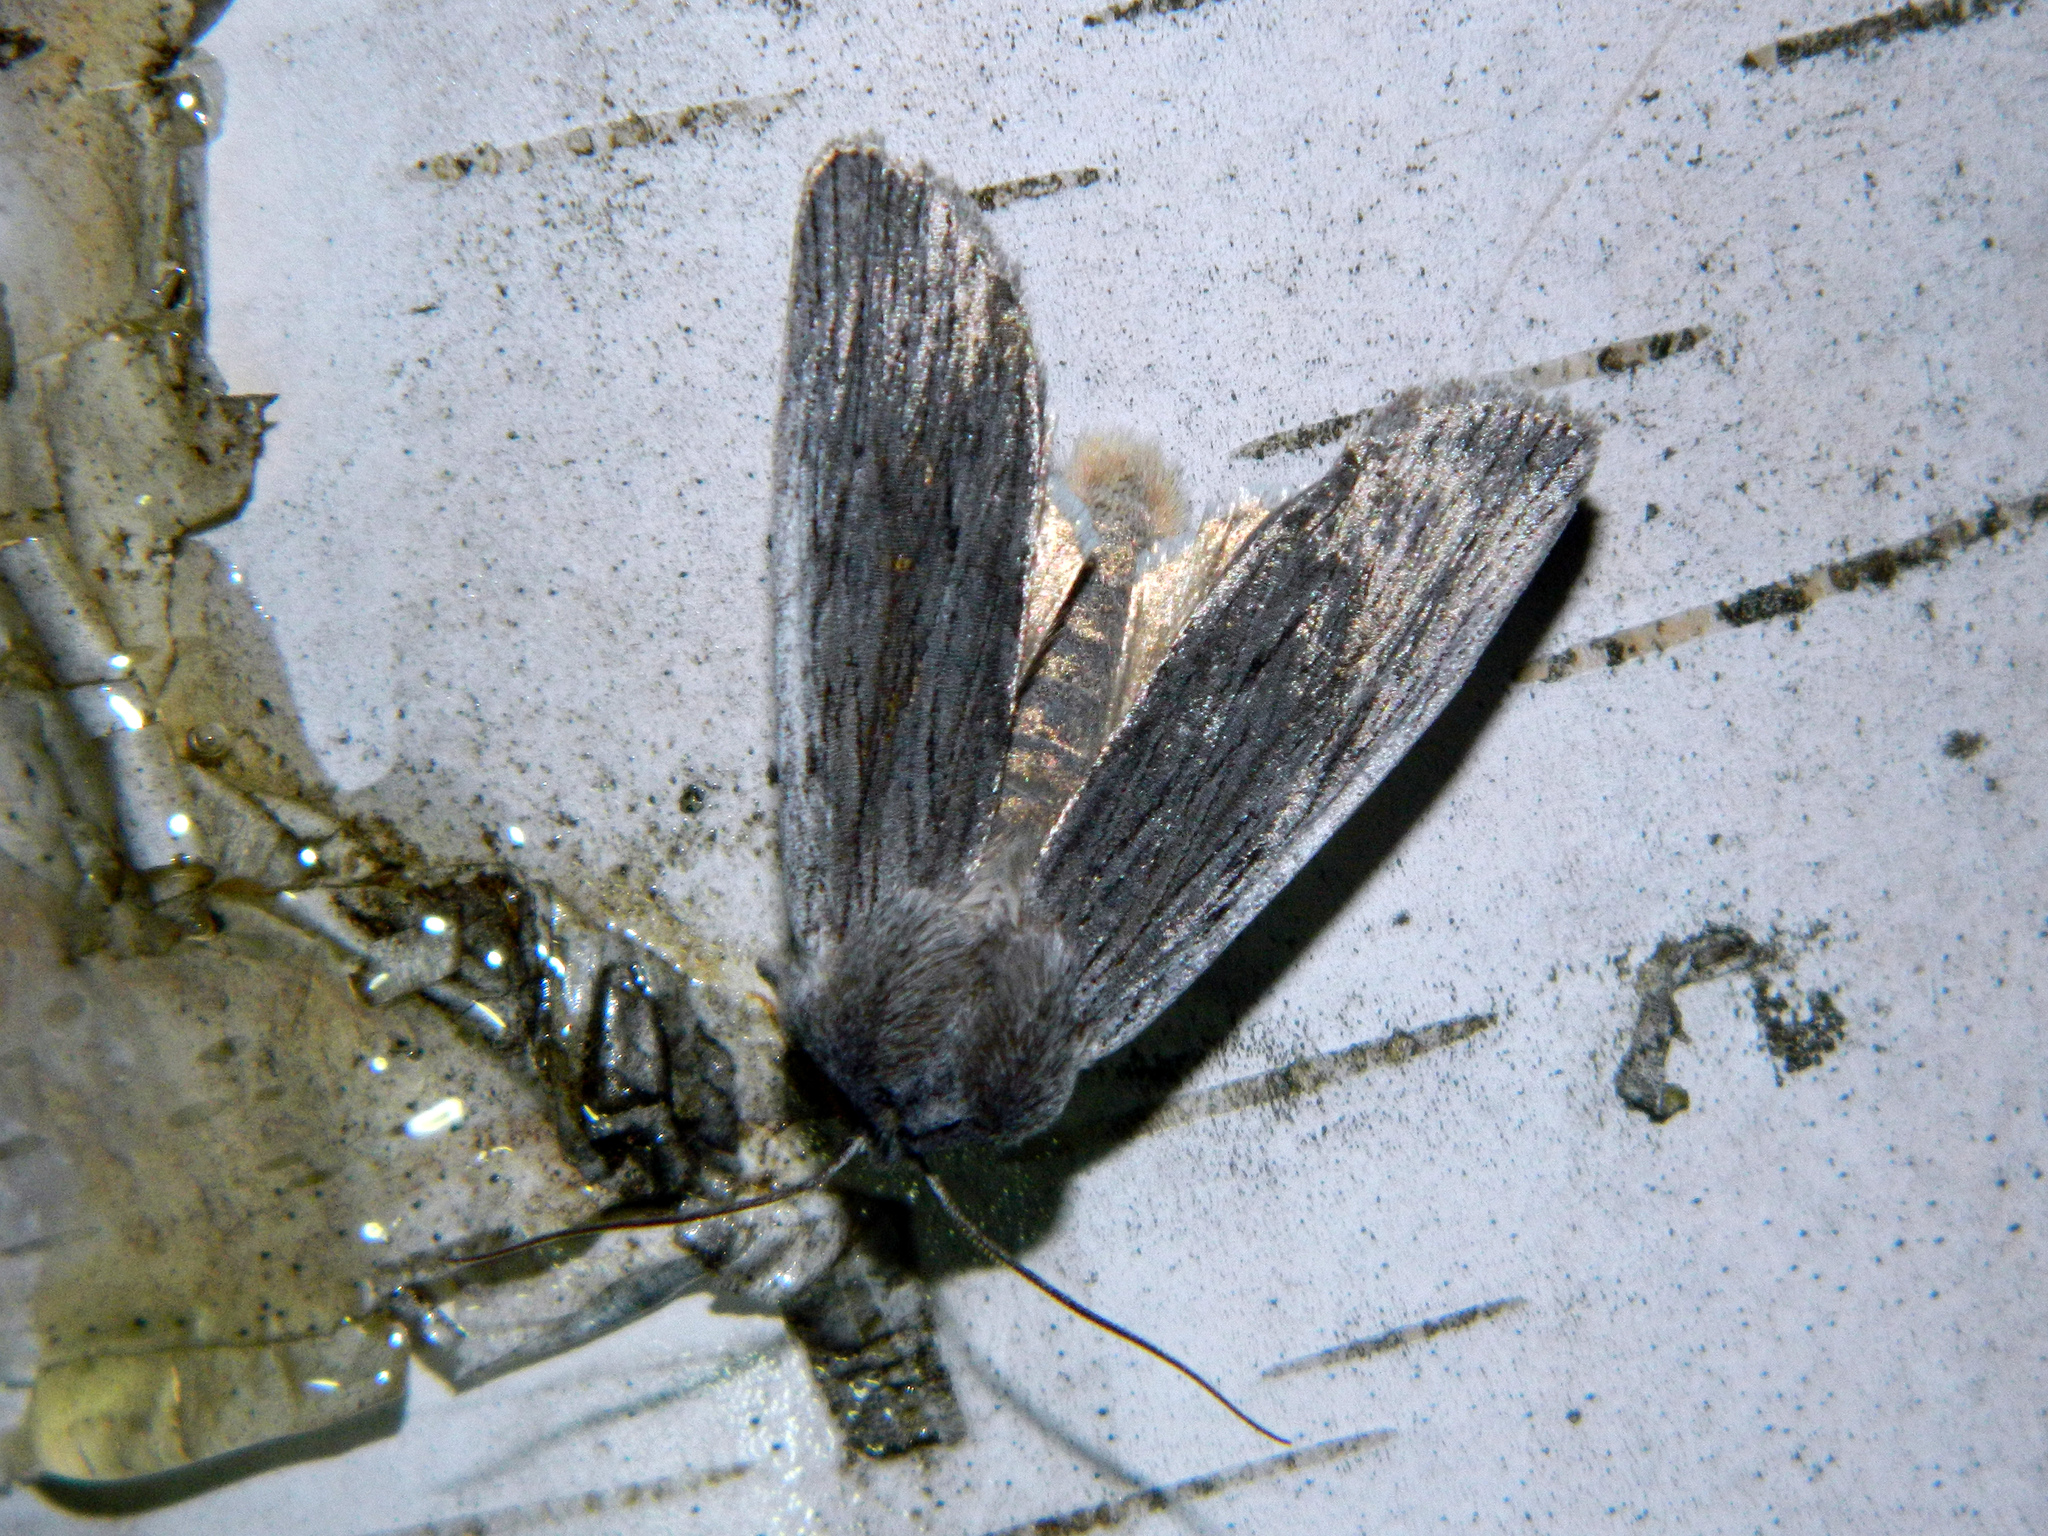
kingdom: Animalia
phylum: Arthropoda
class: Insecta
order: Lepidoptera
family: Noctuidae
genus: Lithophane
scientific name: Lithophane fagina
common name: Hoary pinion moth
